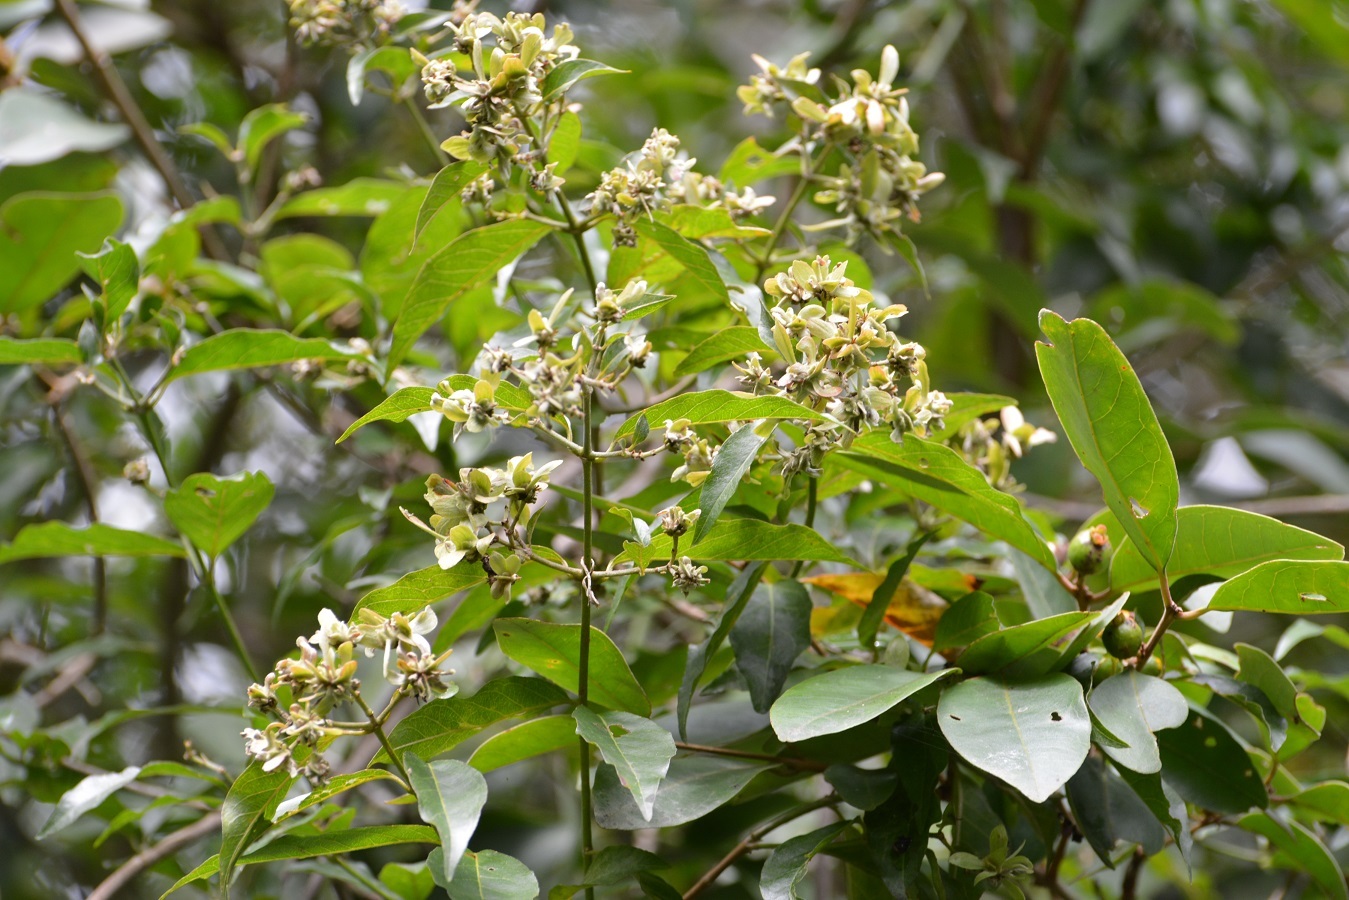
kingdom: Plantae
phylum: Tracheophyta
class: Magnoliopsida
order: Malpighiales
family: Malpighiaceae
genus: Tetrapterys
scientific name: Tetrapterys schiedeana
